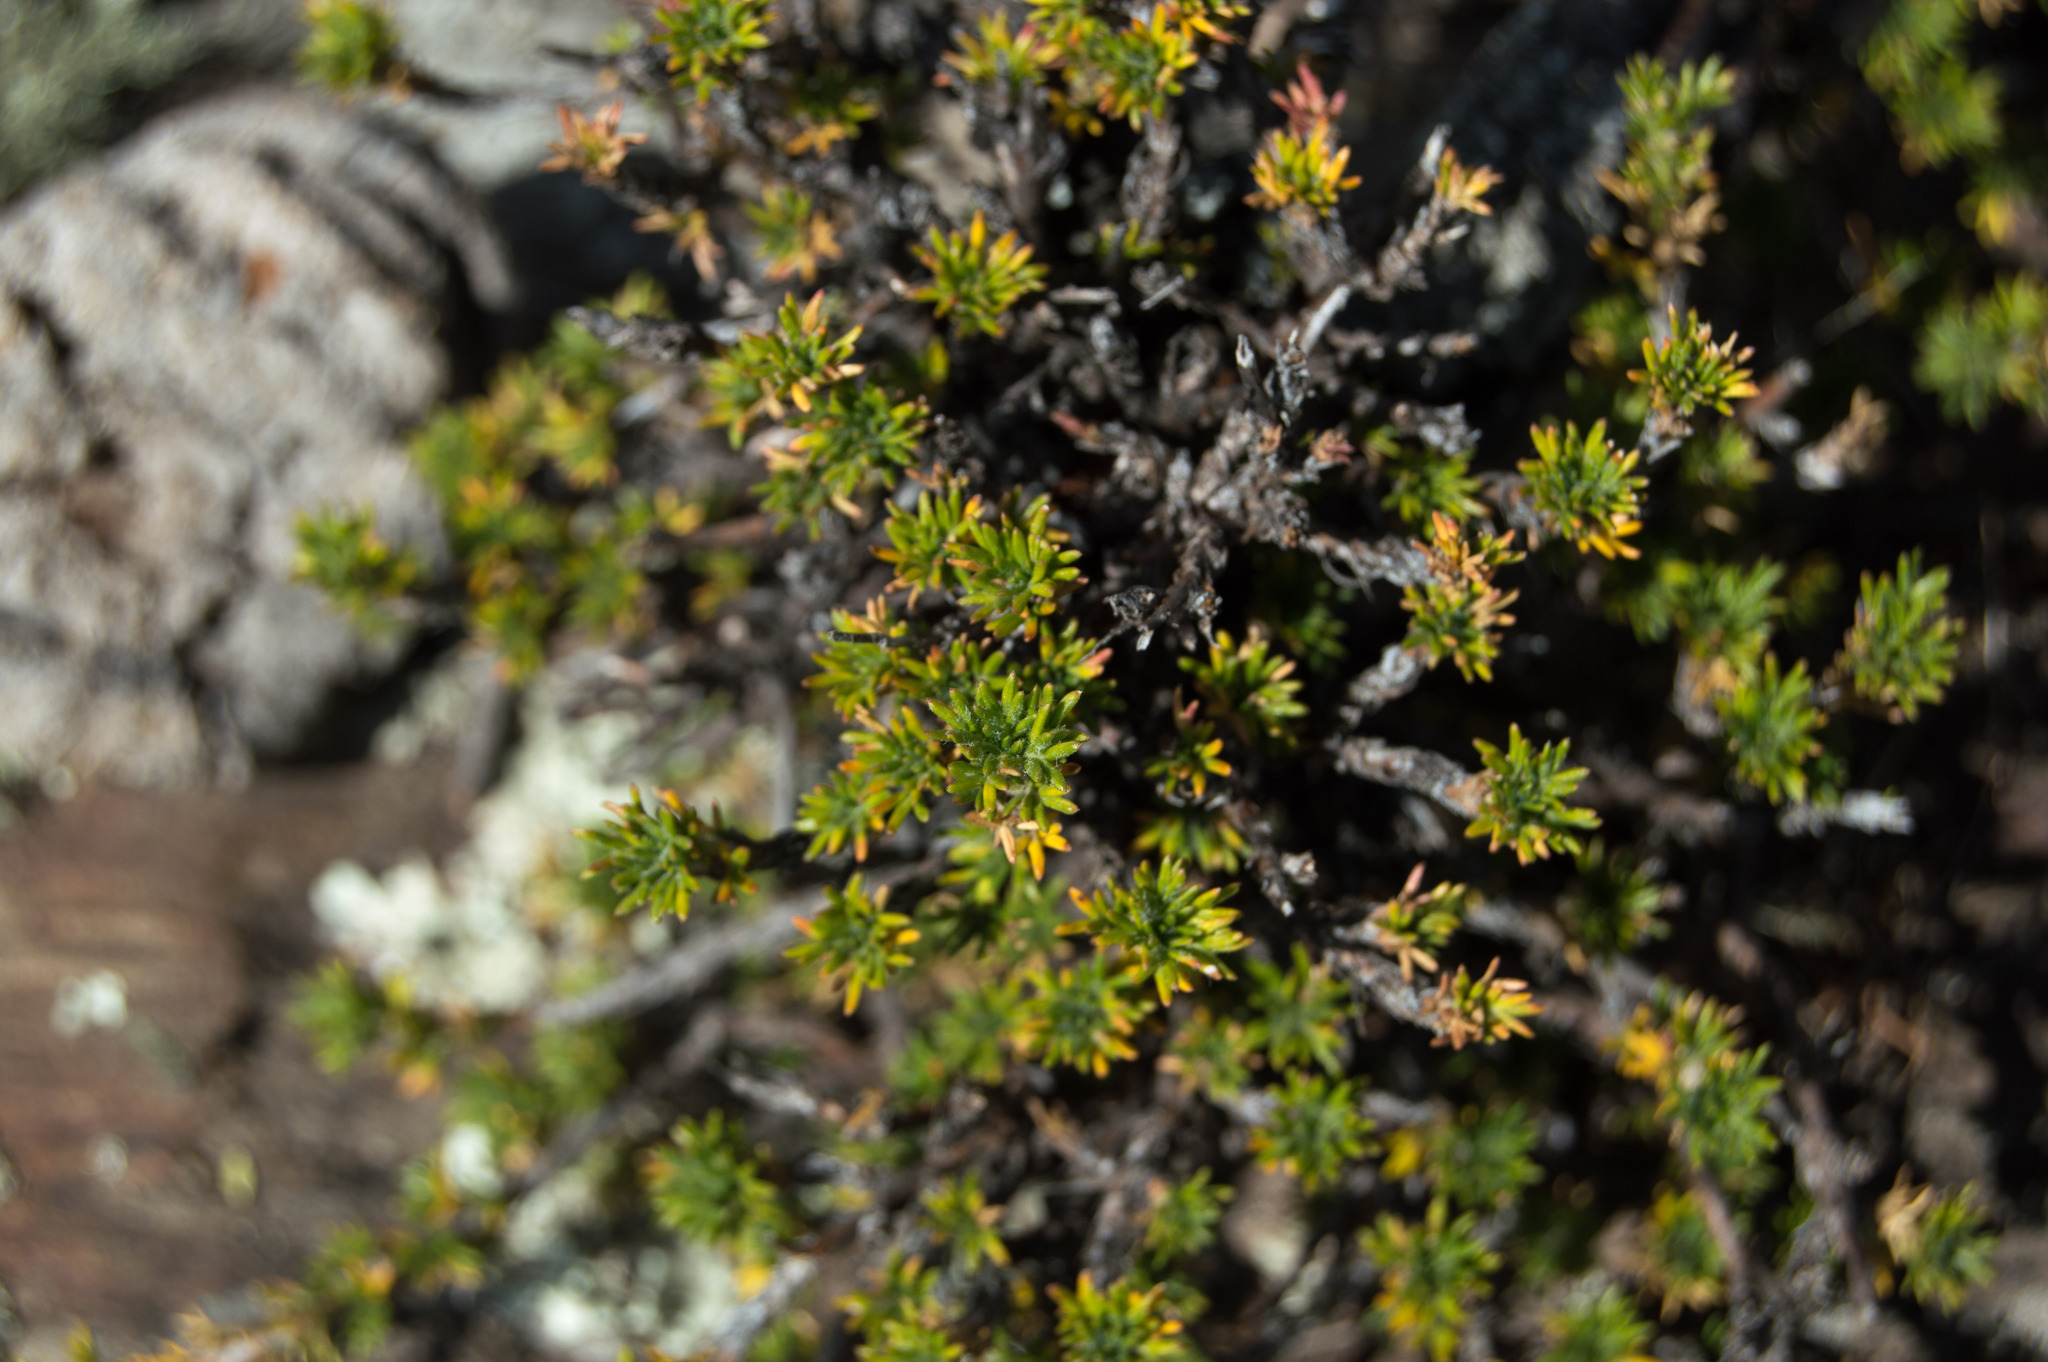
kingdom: Plantae
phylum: Tracheophyta
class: Magnoliopsida
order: Rosales
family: Rosaceae
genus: Margyricarpus
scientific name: Margyricarpus pinnatus
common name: Pearlfruit
